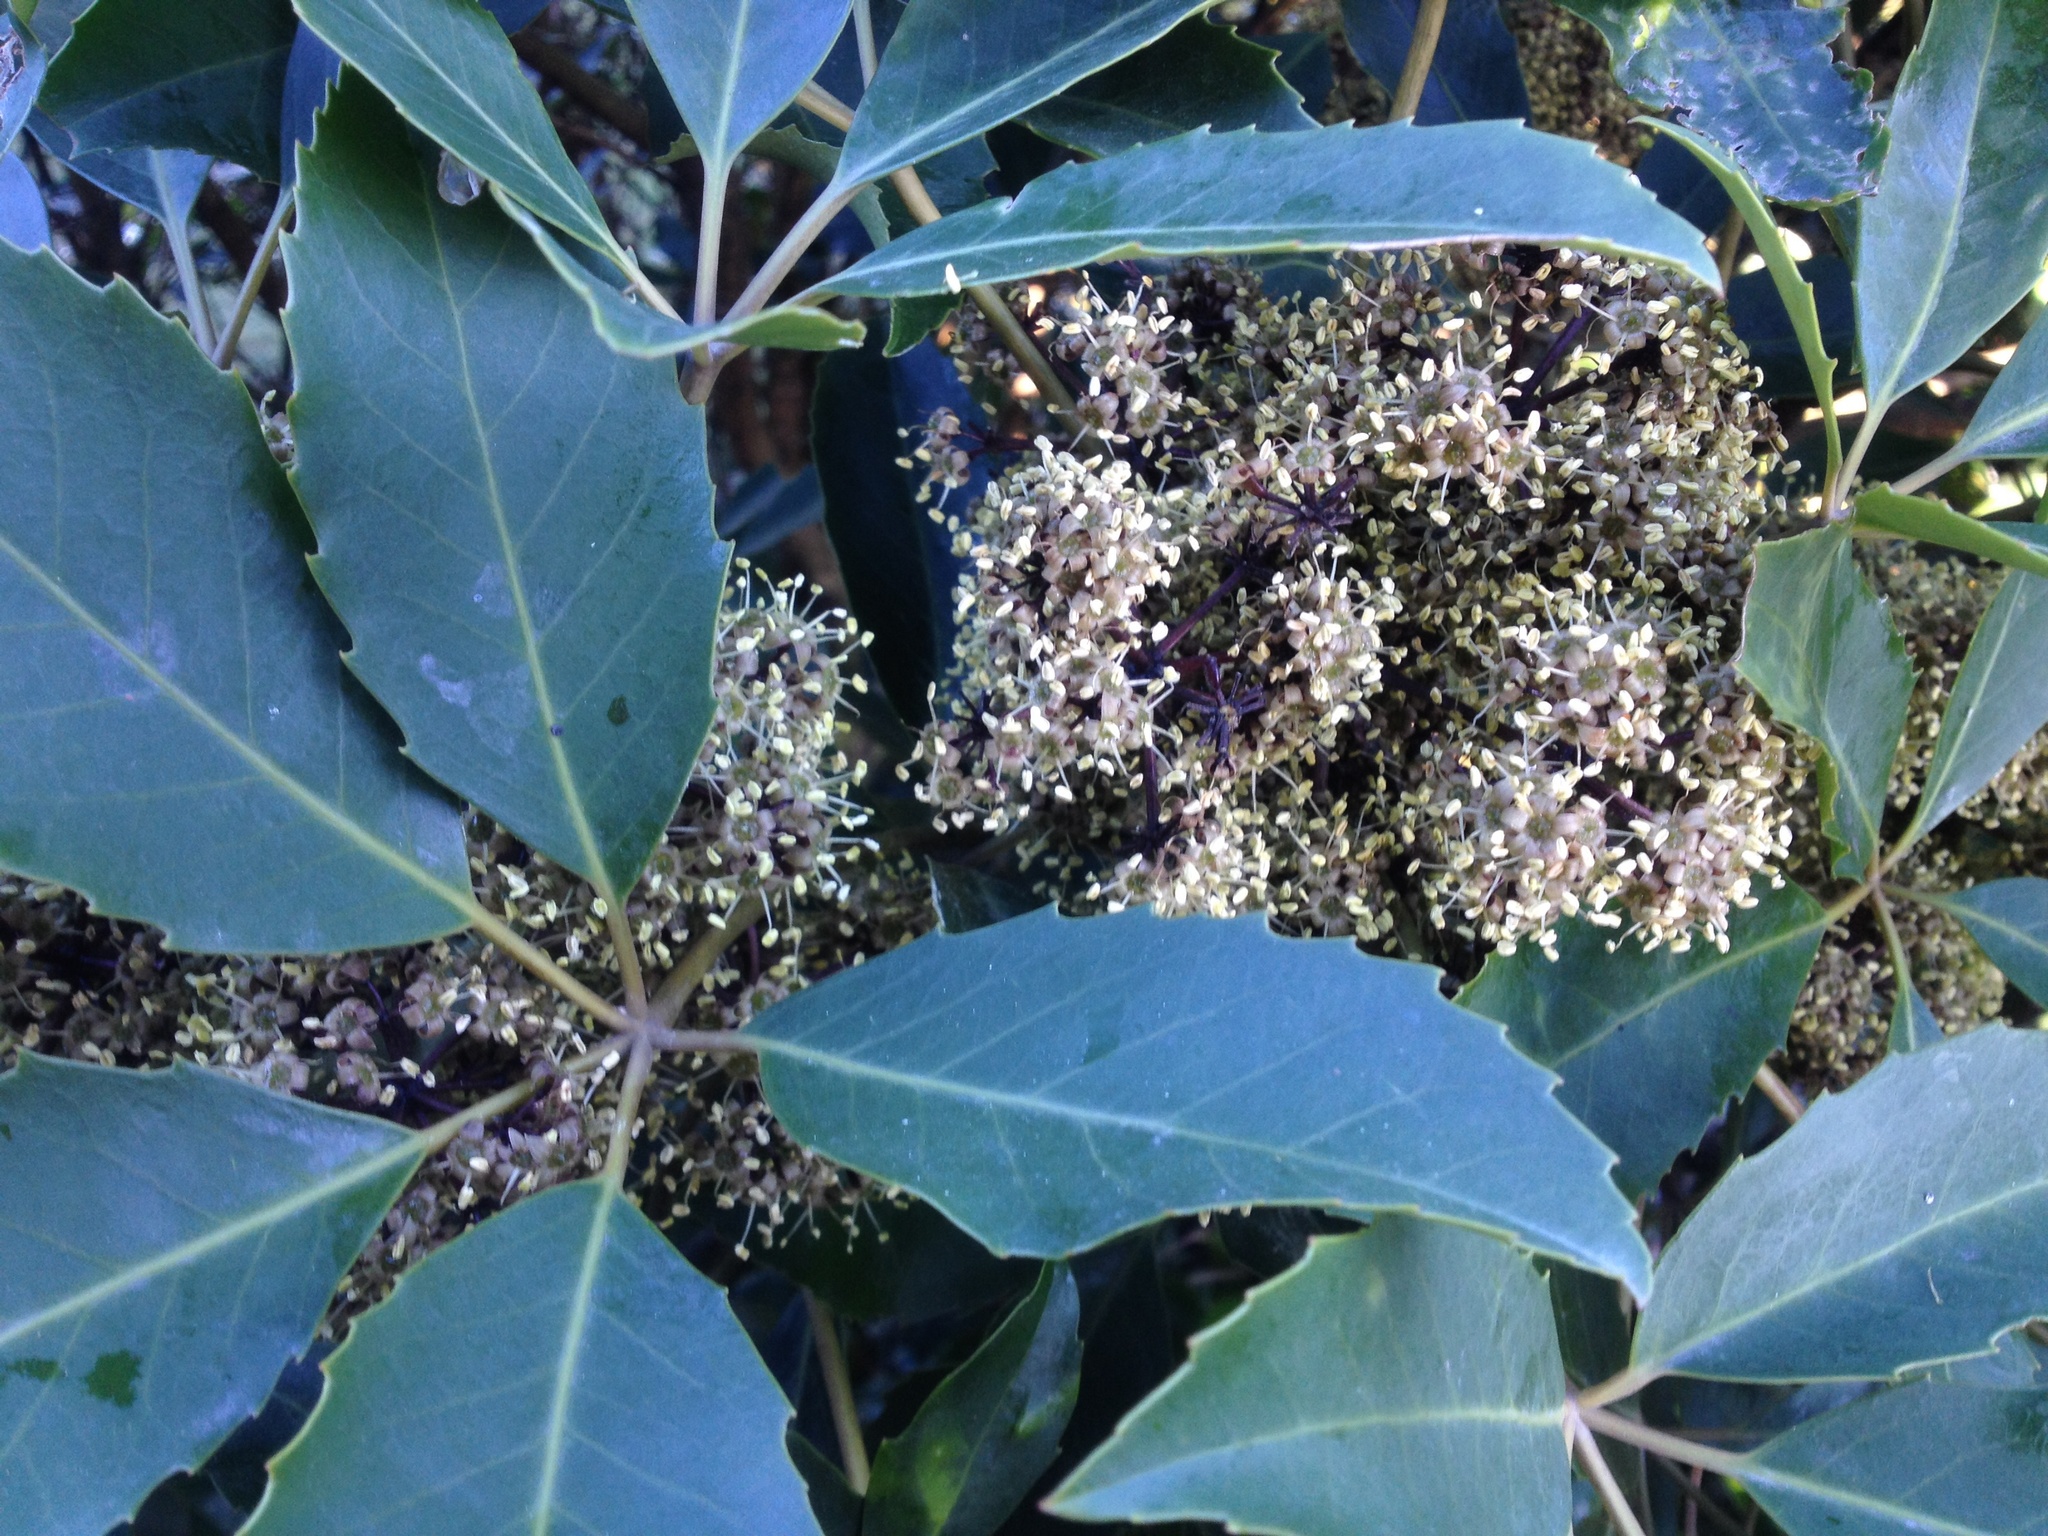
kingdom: Plantae
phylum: Tracheophyta
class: Magnoliopsida
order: Apiales
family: Araliaceae
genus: Neopanax
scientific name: Neopanax arboreus
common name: Five-fingers
